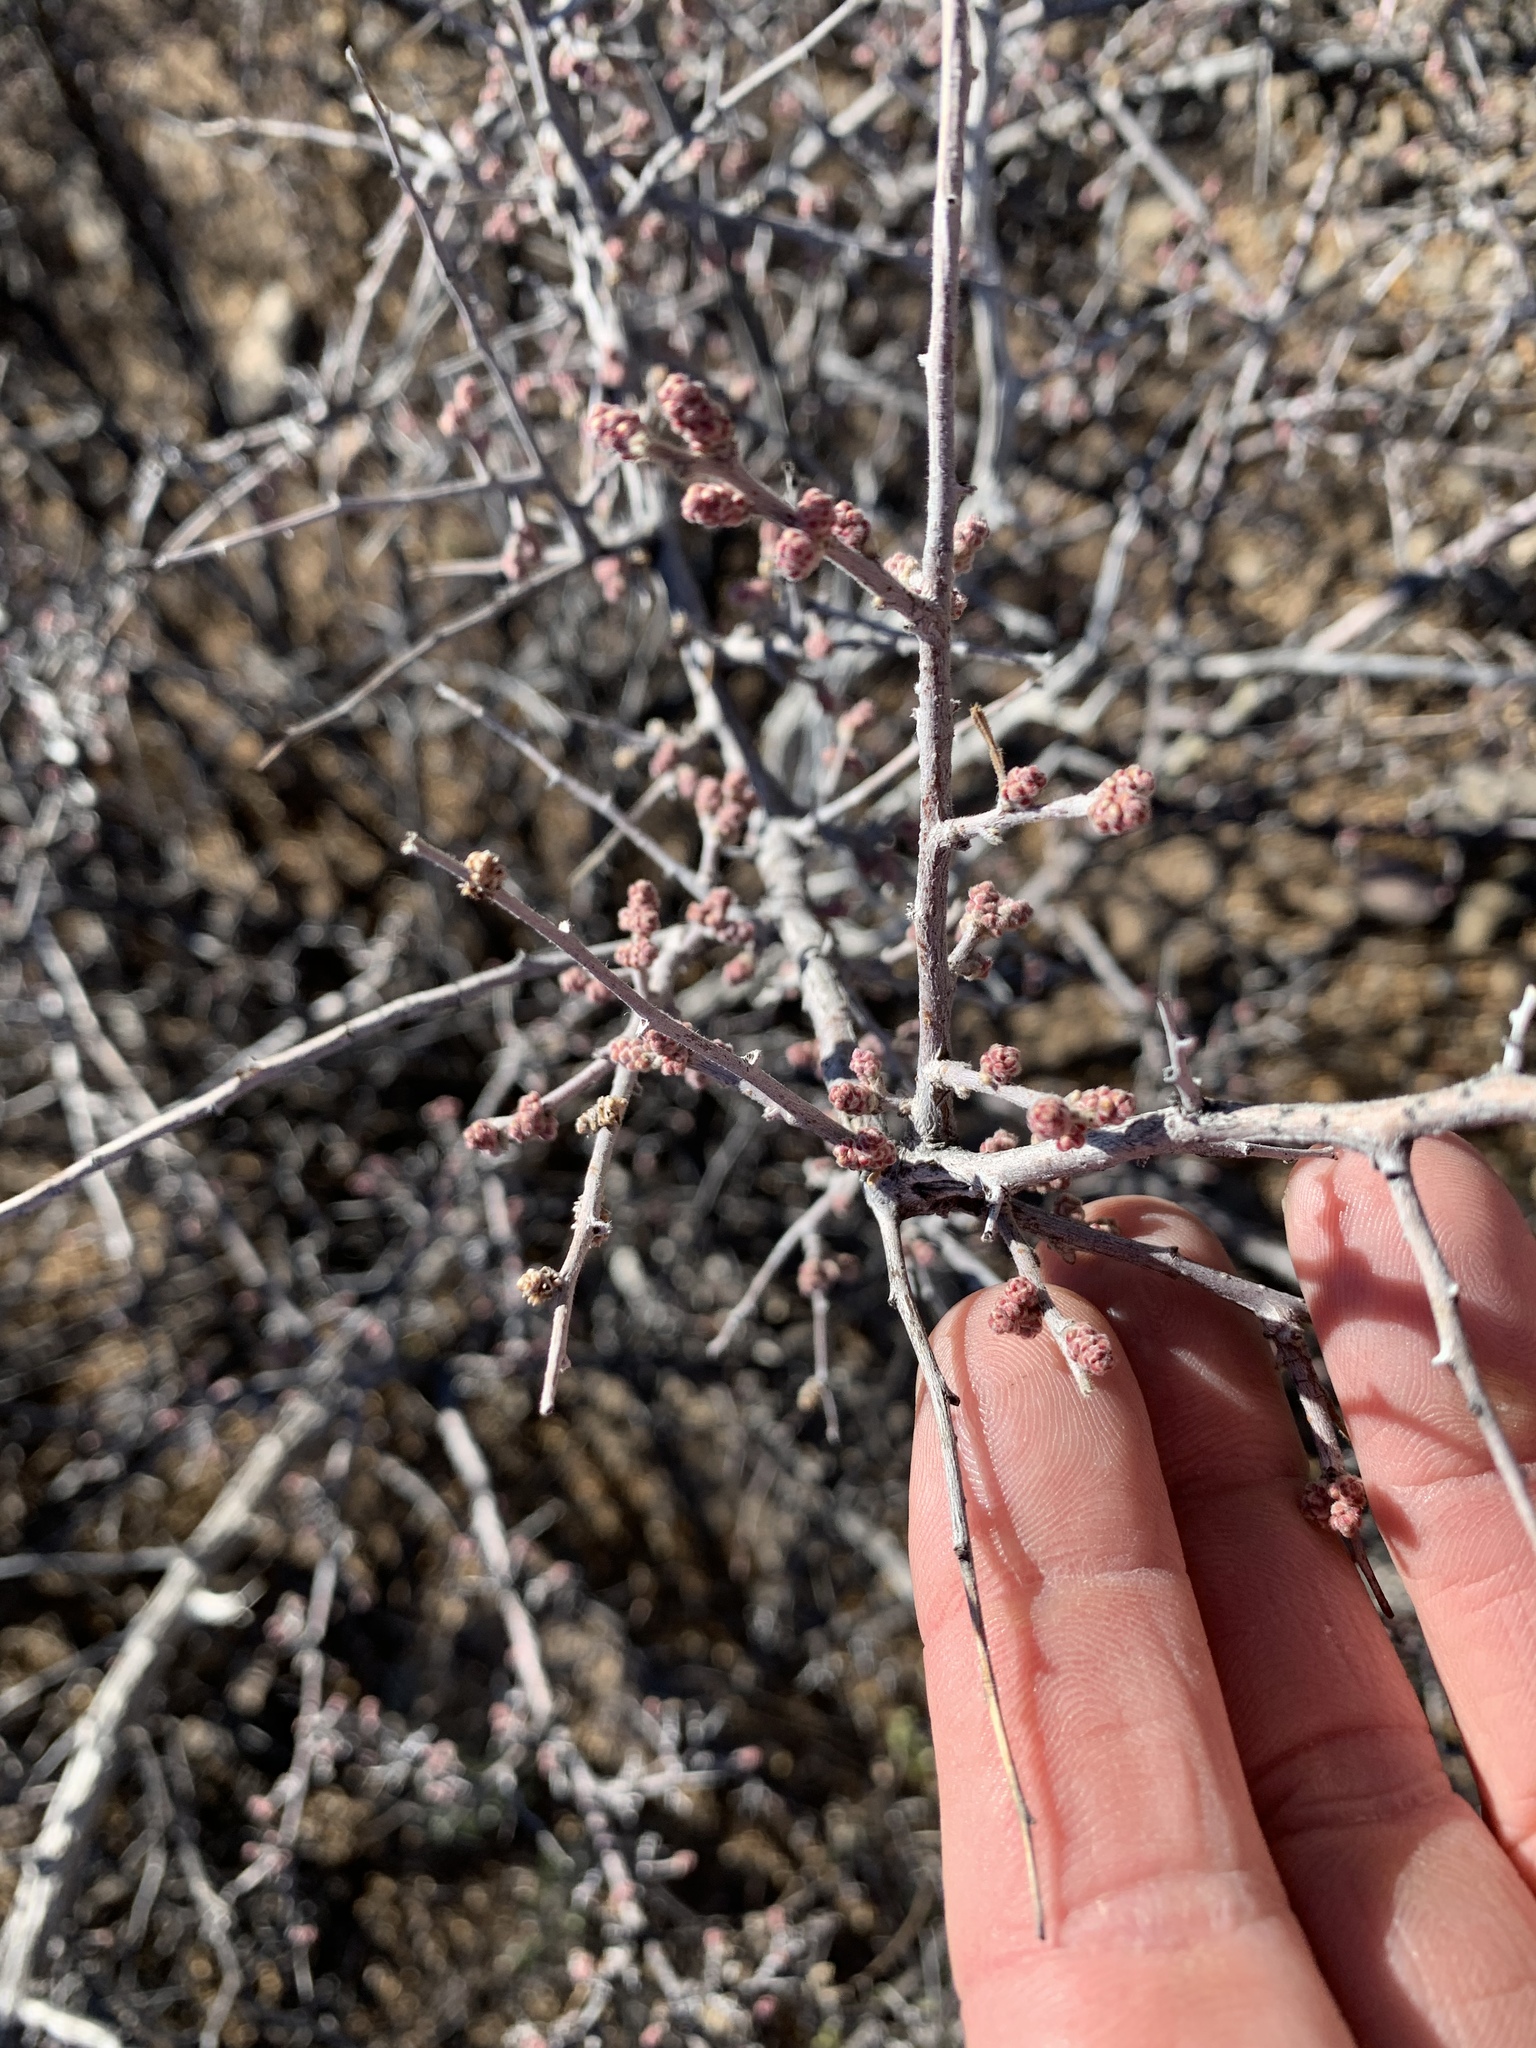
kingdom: Plantae
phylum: Tracheophyta
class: Magnoliopsida
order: Sapindales
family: Anacardiaceae
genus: Rhus
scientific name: Rhus microphylla
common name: Desert sumac
